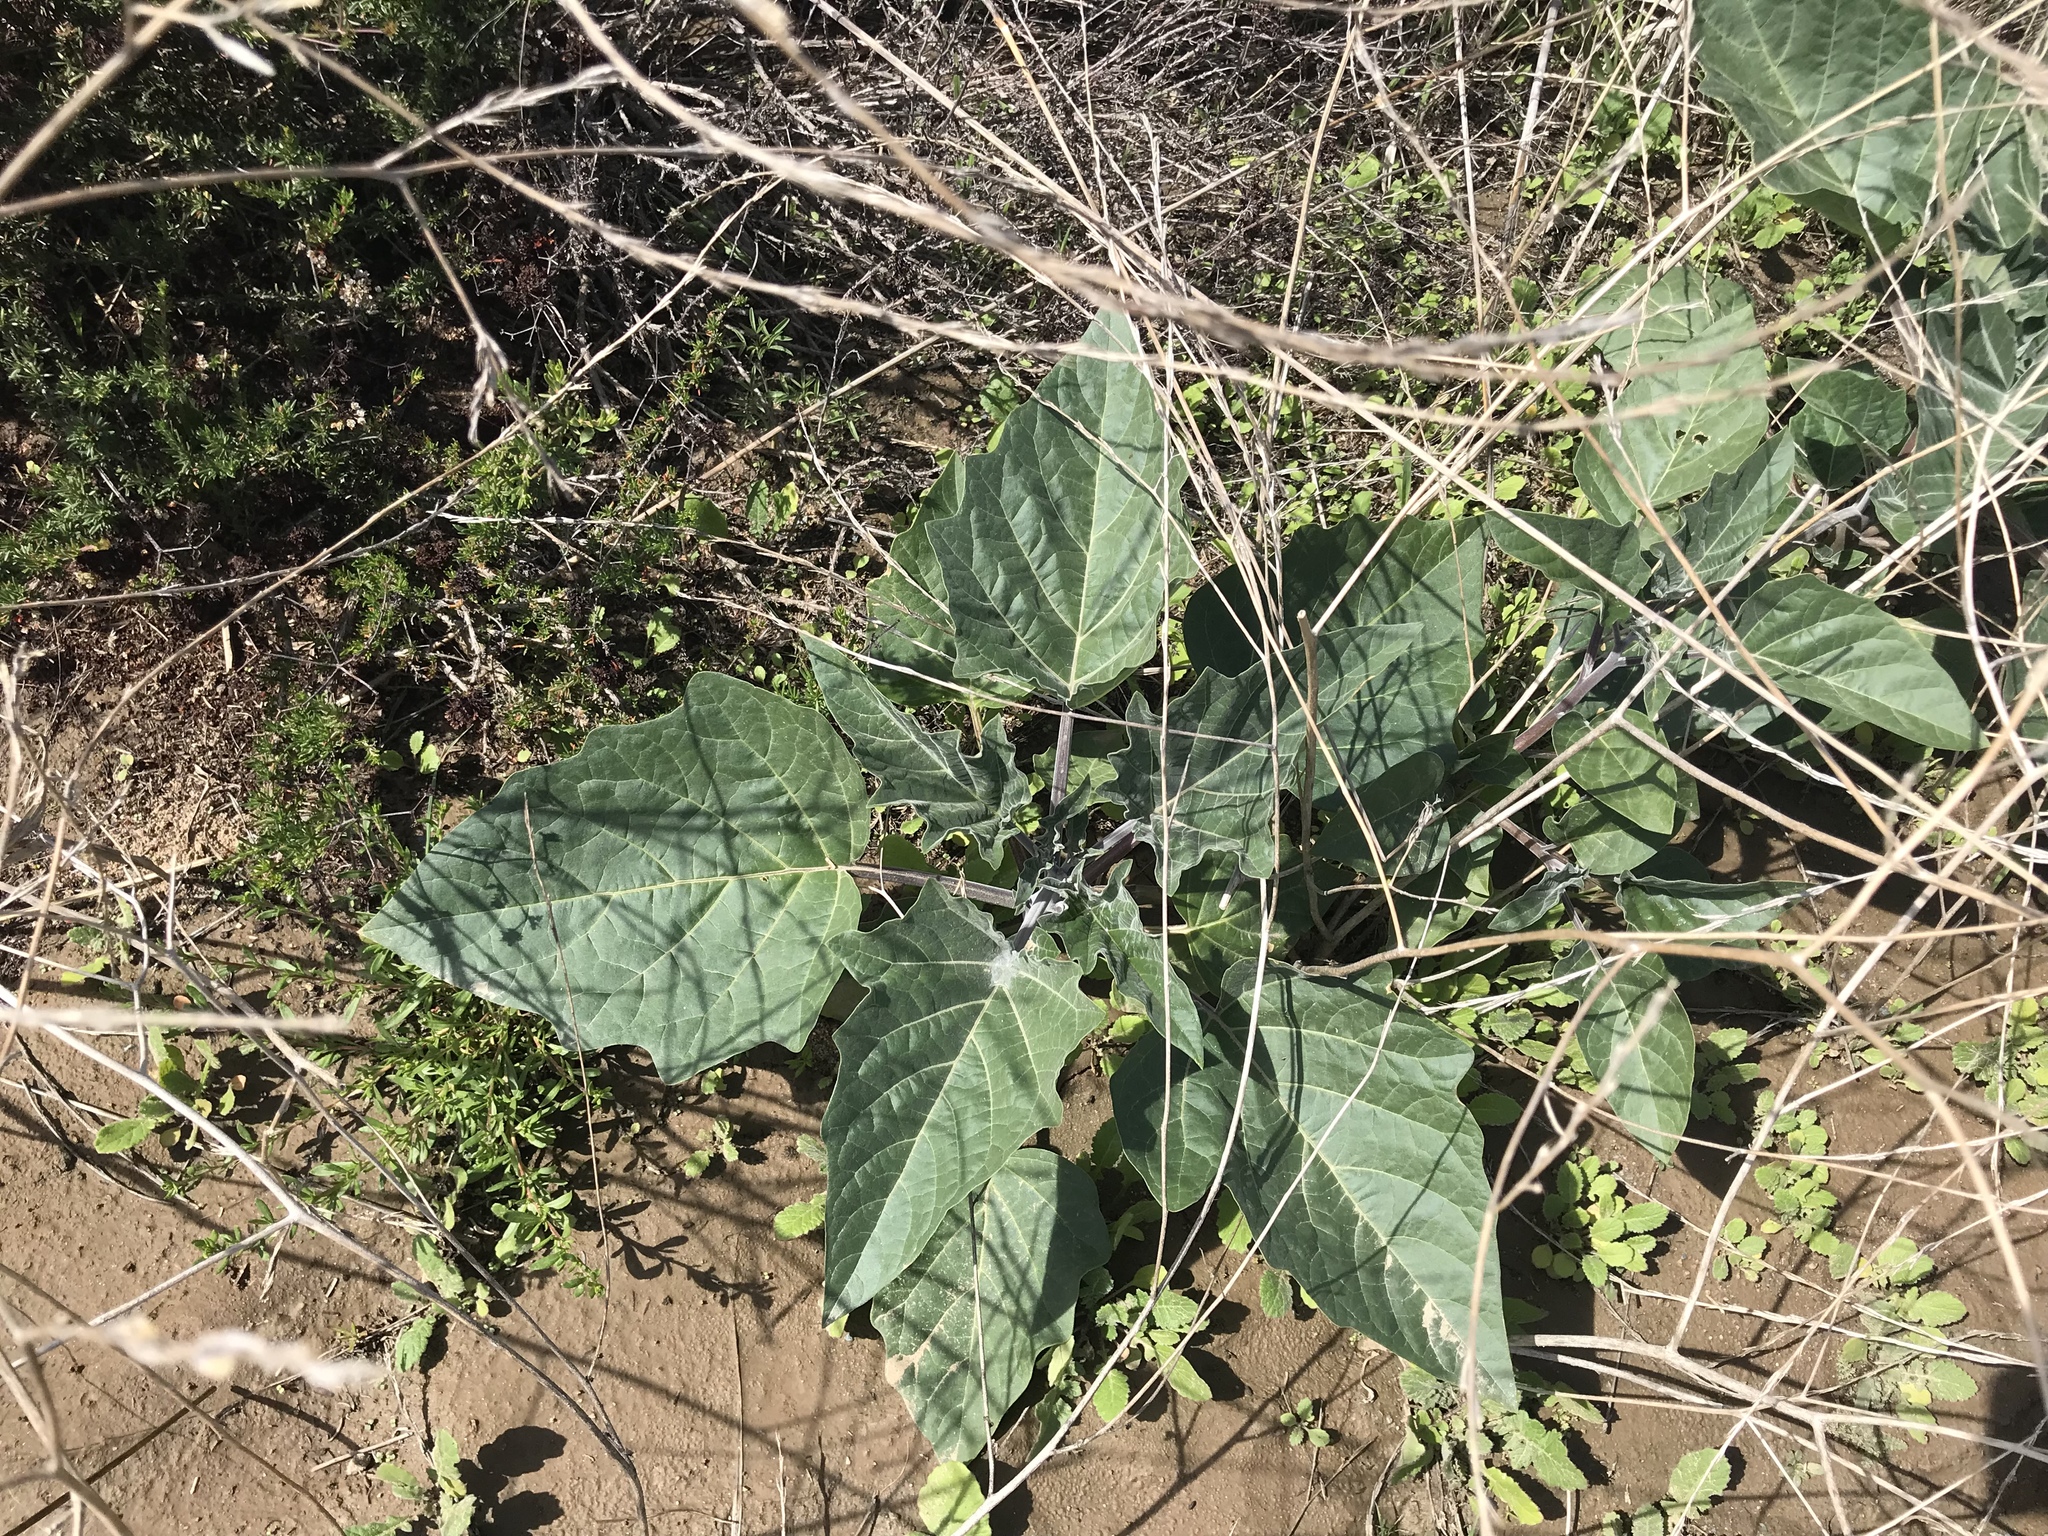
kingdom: Plantae
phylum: Tracheophyta
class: Magnoliopsida
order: Solanales
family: Solanaceae
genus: Datura
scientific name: Datura wrightii
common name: Sacred thorn-apple
